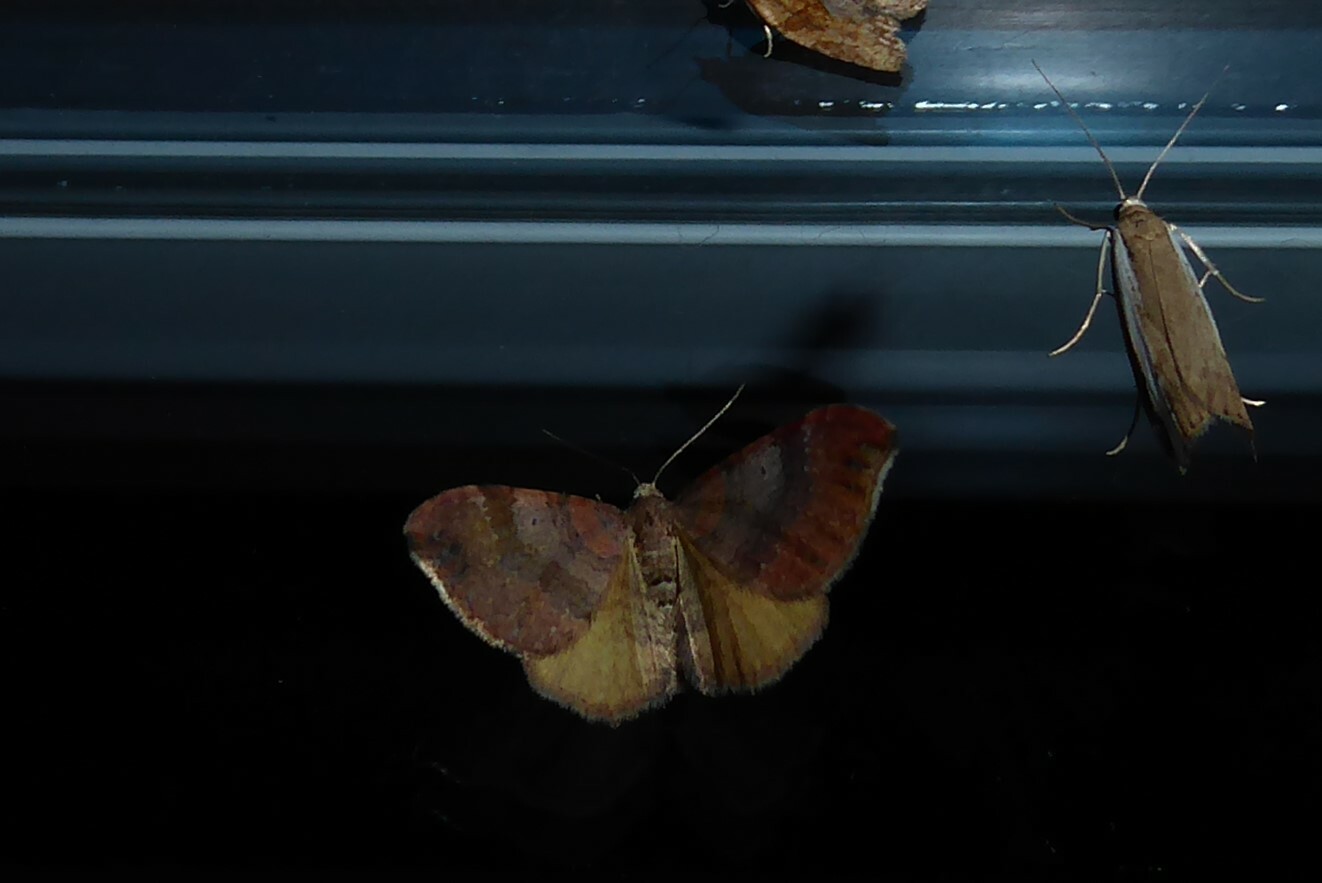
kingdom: Animalia
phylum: Arthropoda
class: Insecta
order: Lepidoptera
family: Geometridae
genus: Homodotis
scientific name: Homodotis megaspilata
